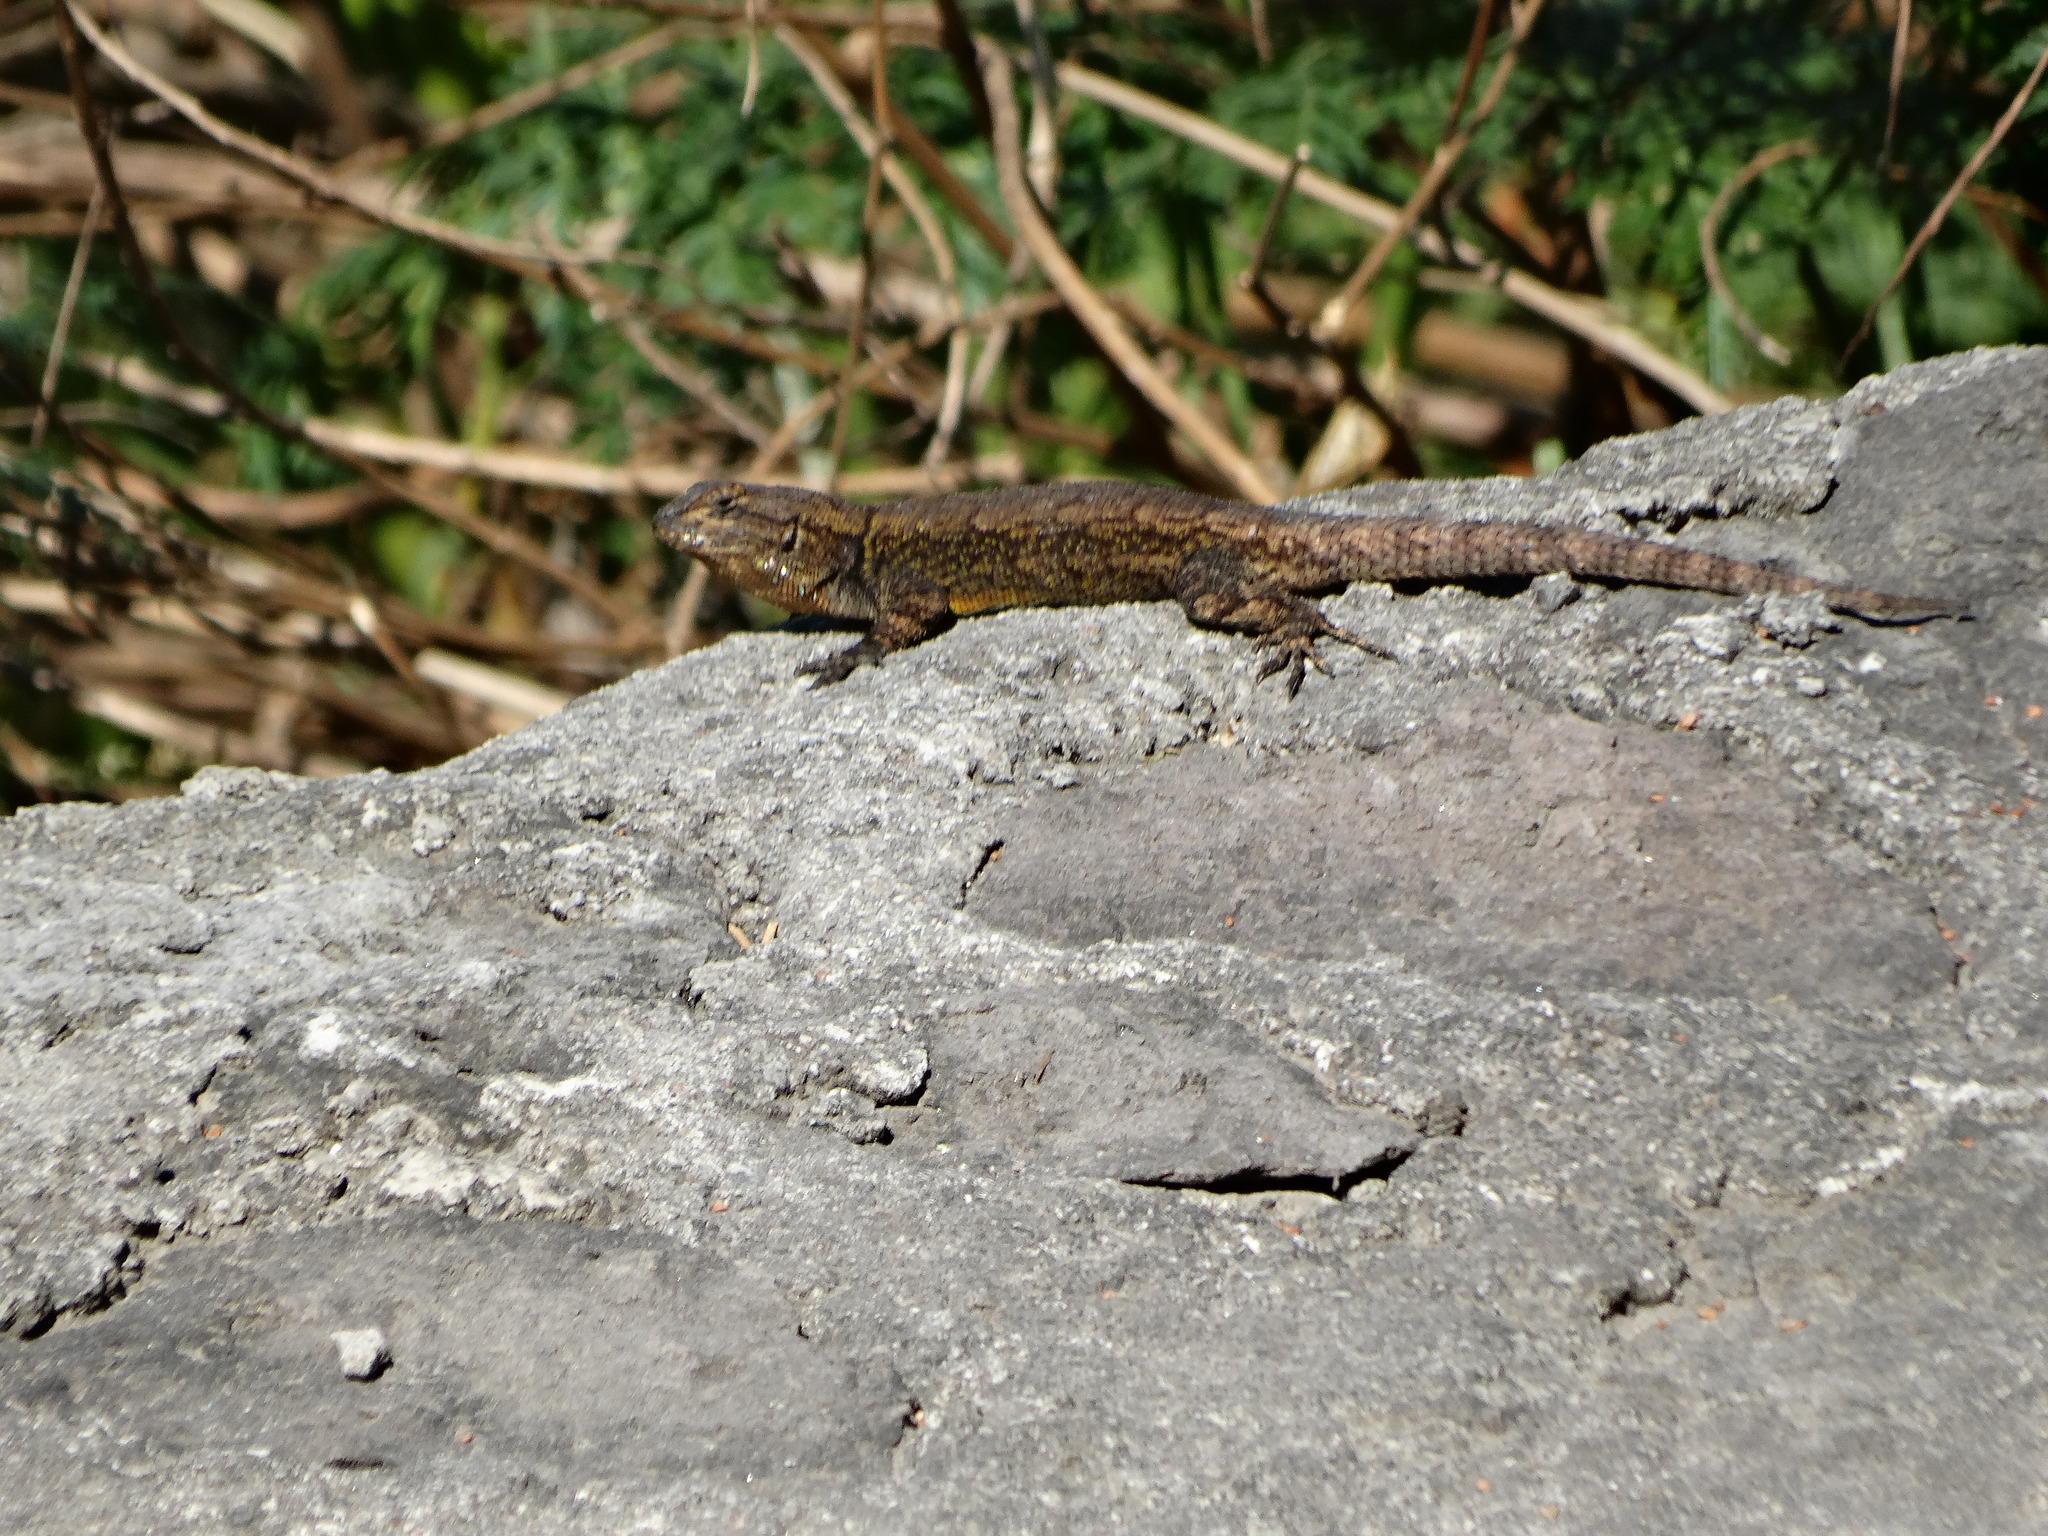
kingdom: Animalia
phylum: Chordata
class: Squamata
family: Phrynosomatidae
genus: Sceloporus
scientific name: Sceloporus grammicus
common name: Mesquite lizard
